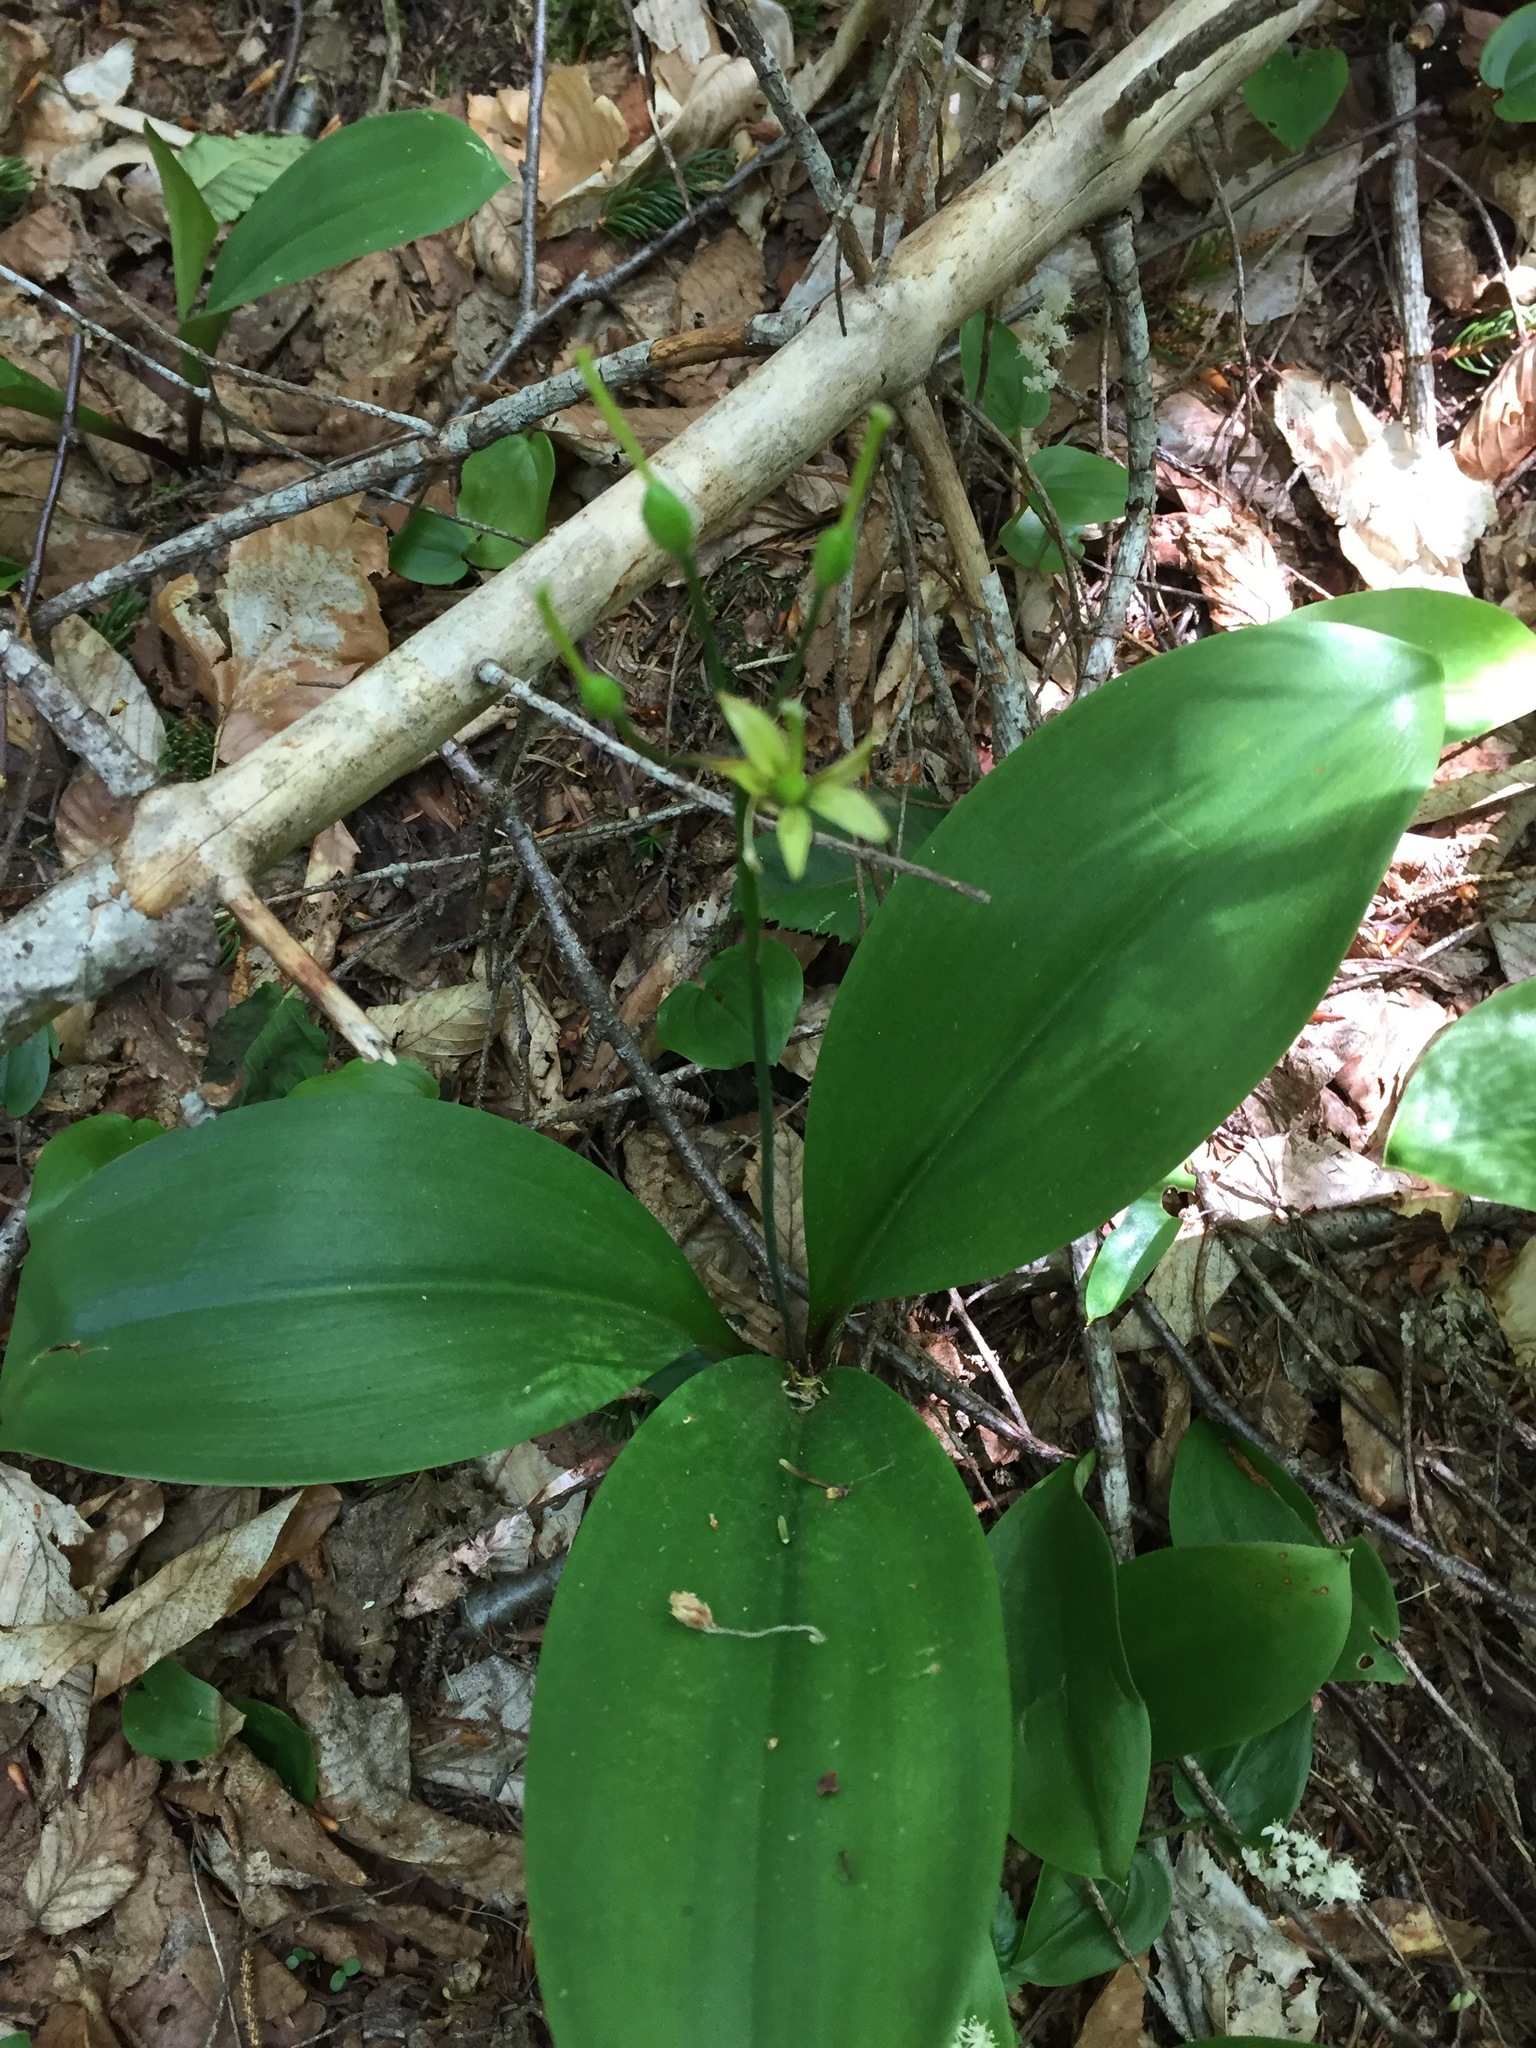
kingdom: Plantae
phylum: Tracheophyta
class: Liliopsida
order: Liliales
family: Liliaceae
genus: Clintonia
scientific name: Clintonia borealis
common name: Yellow clintonia
